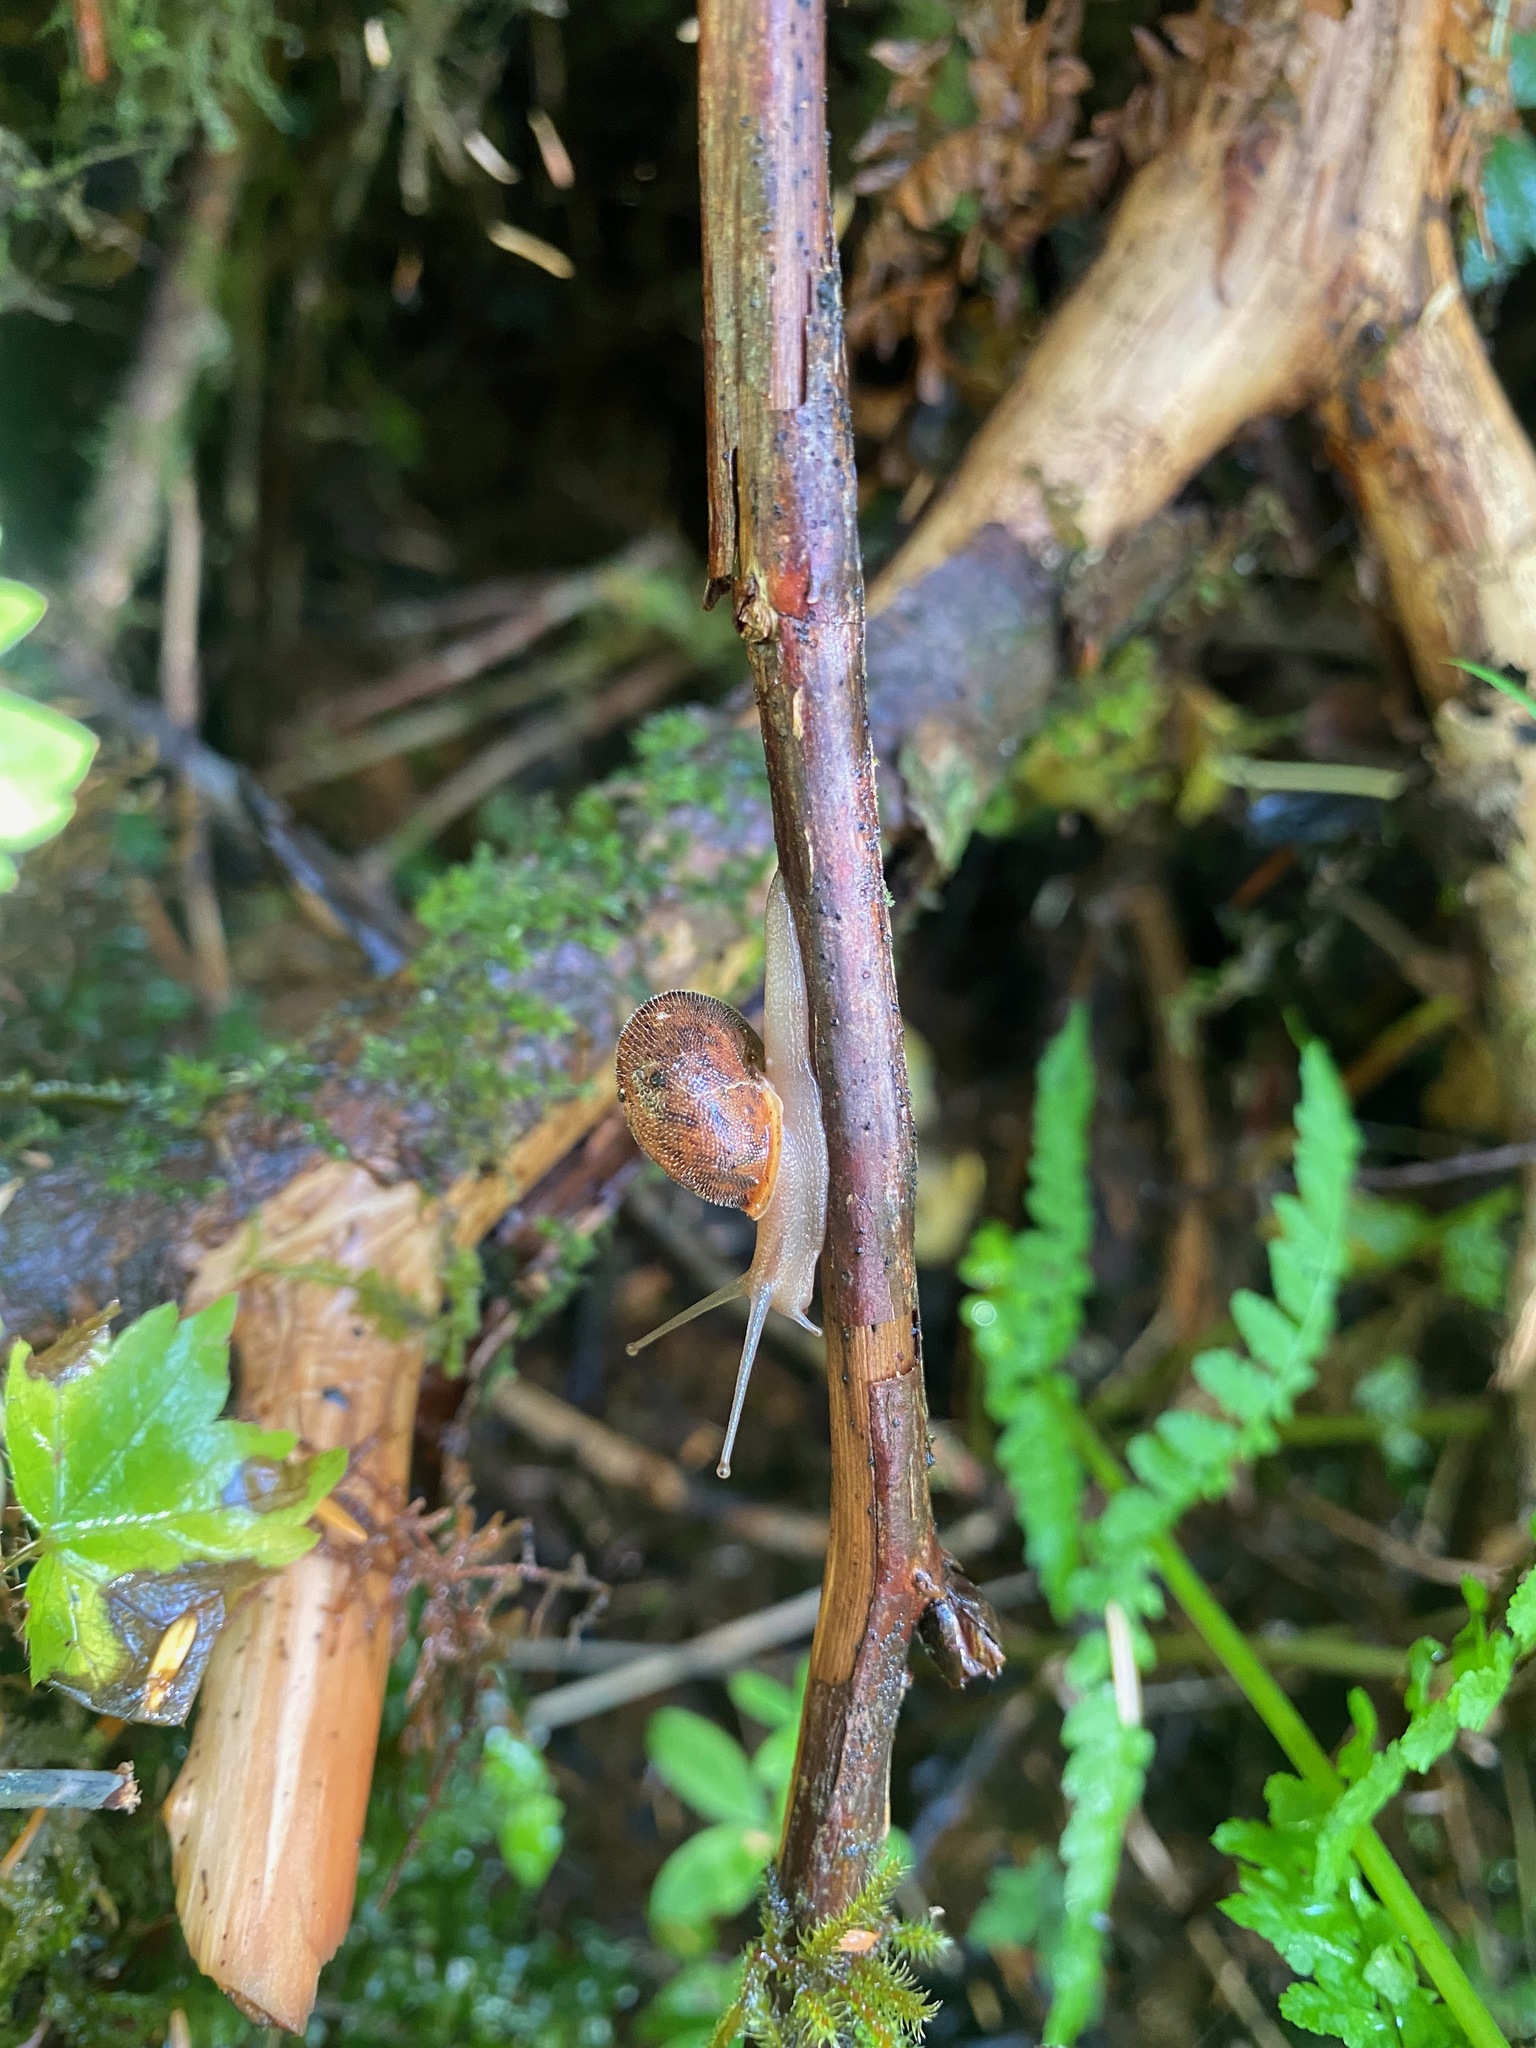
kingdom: Animalia
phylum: Mollusca
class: Gastropoda
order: Stylommatophora
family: Polygyridae
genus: Vespericola
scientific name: Vespericola columbianus
